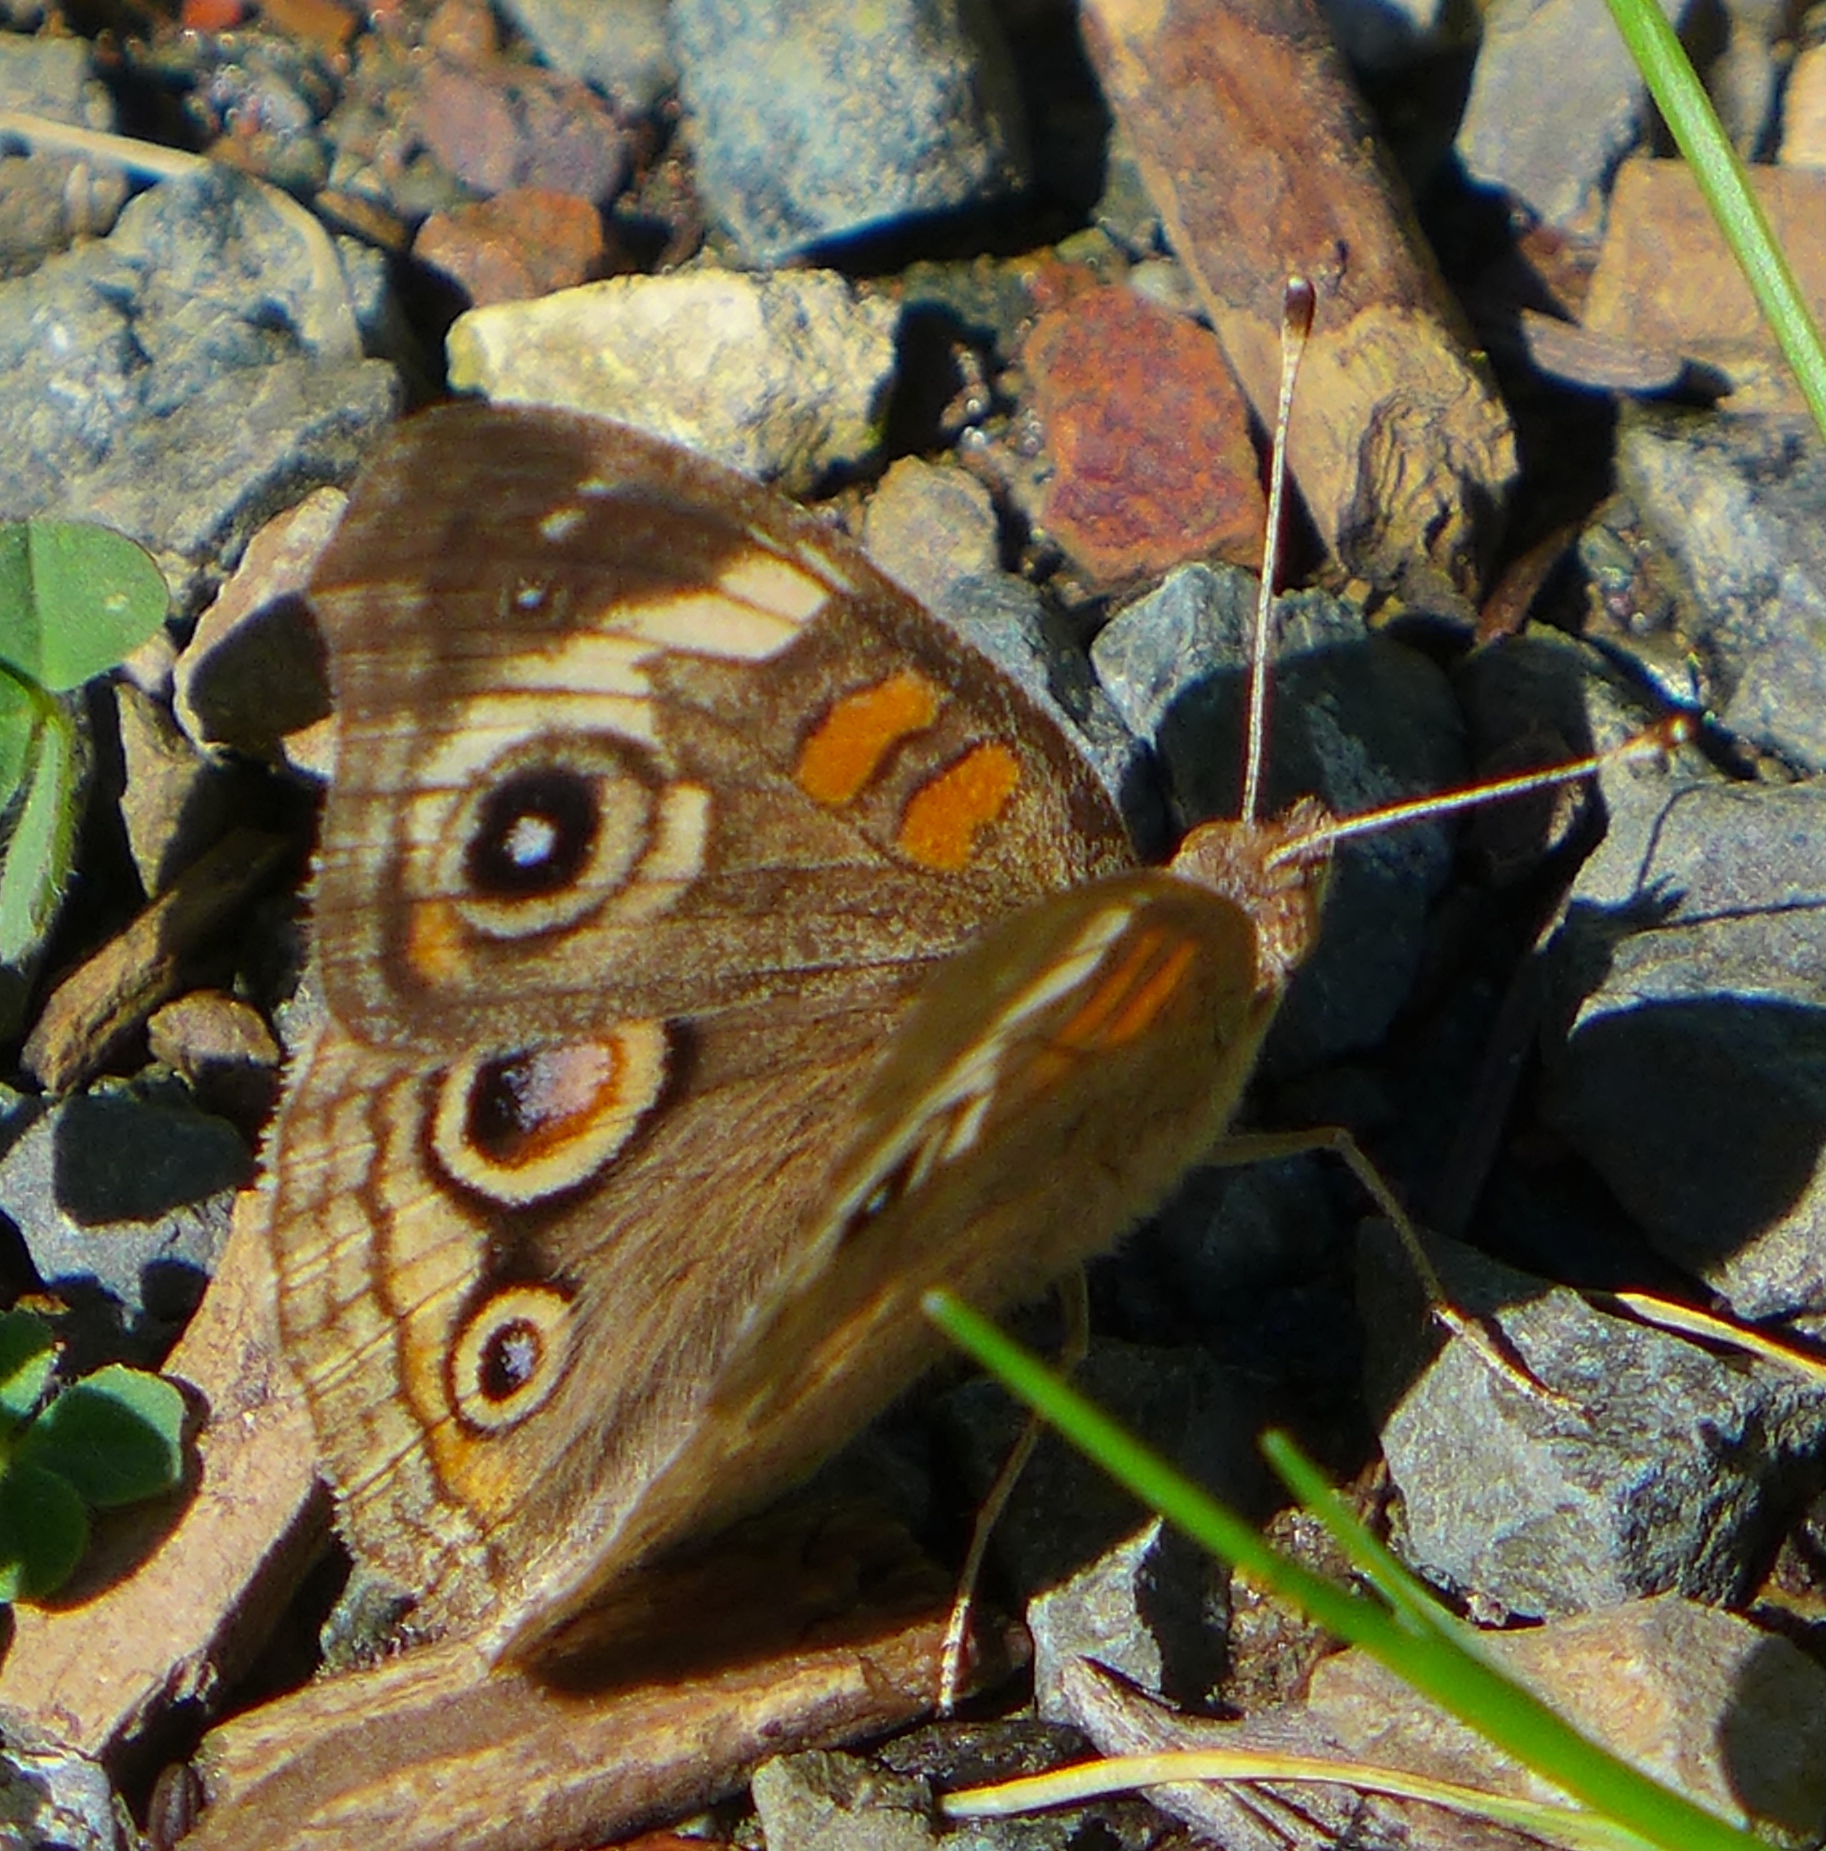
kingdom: Animalia
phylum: Arthropoda
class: Insecta
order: Lepidoptera
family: Nymphalidae
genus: Junonia
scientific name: Junonia grisea
